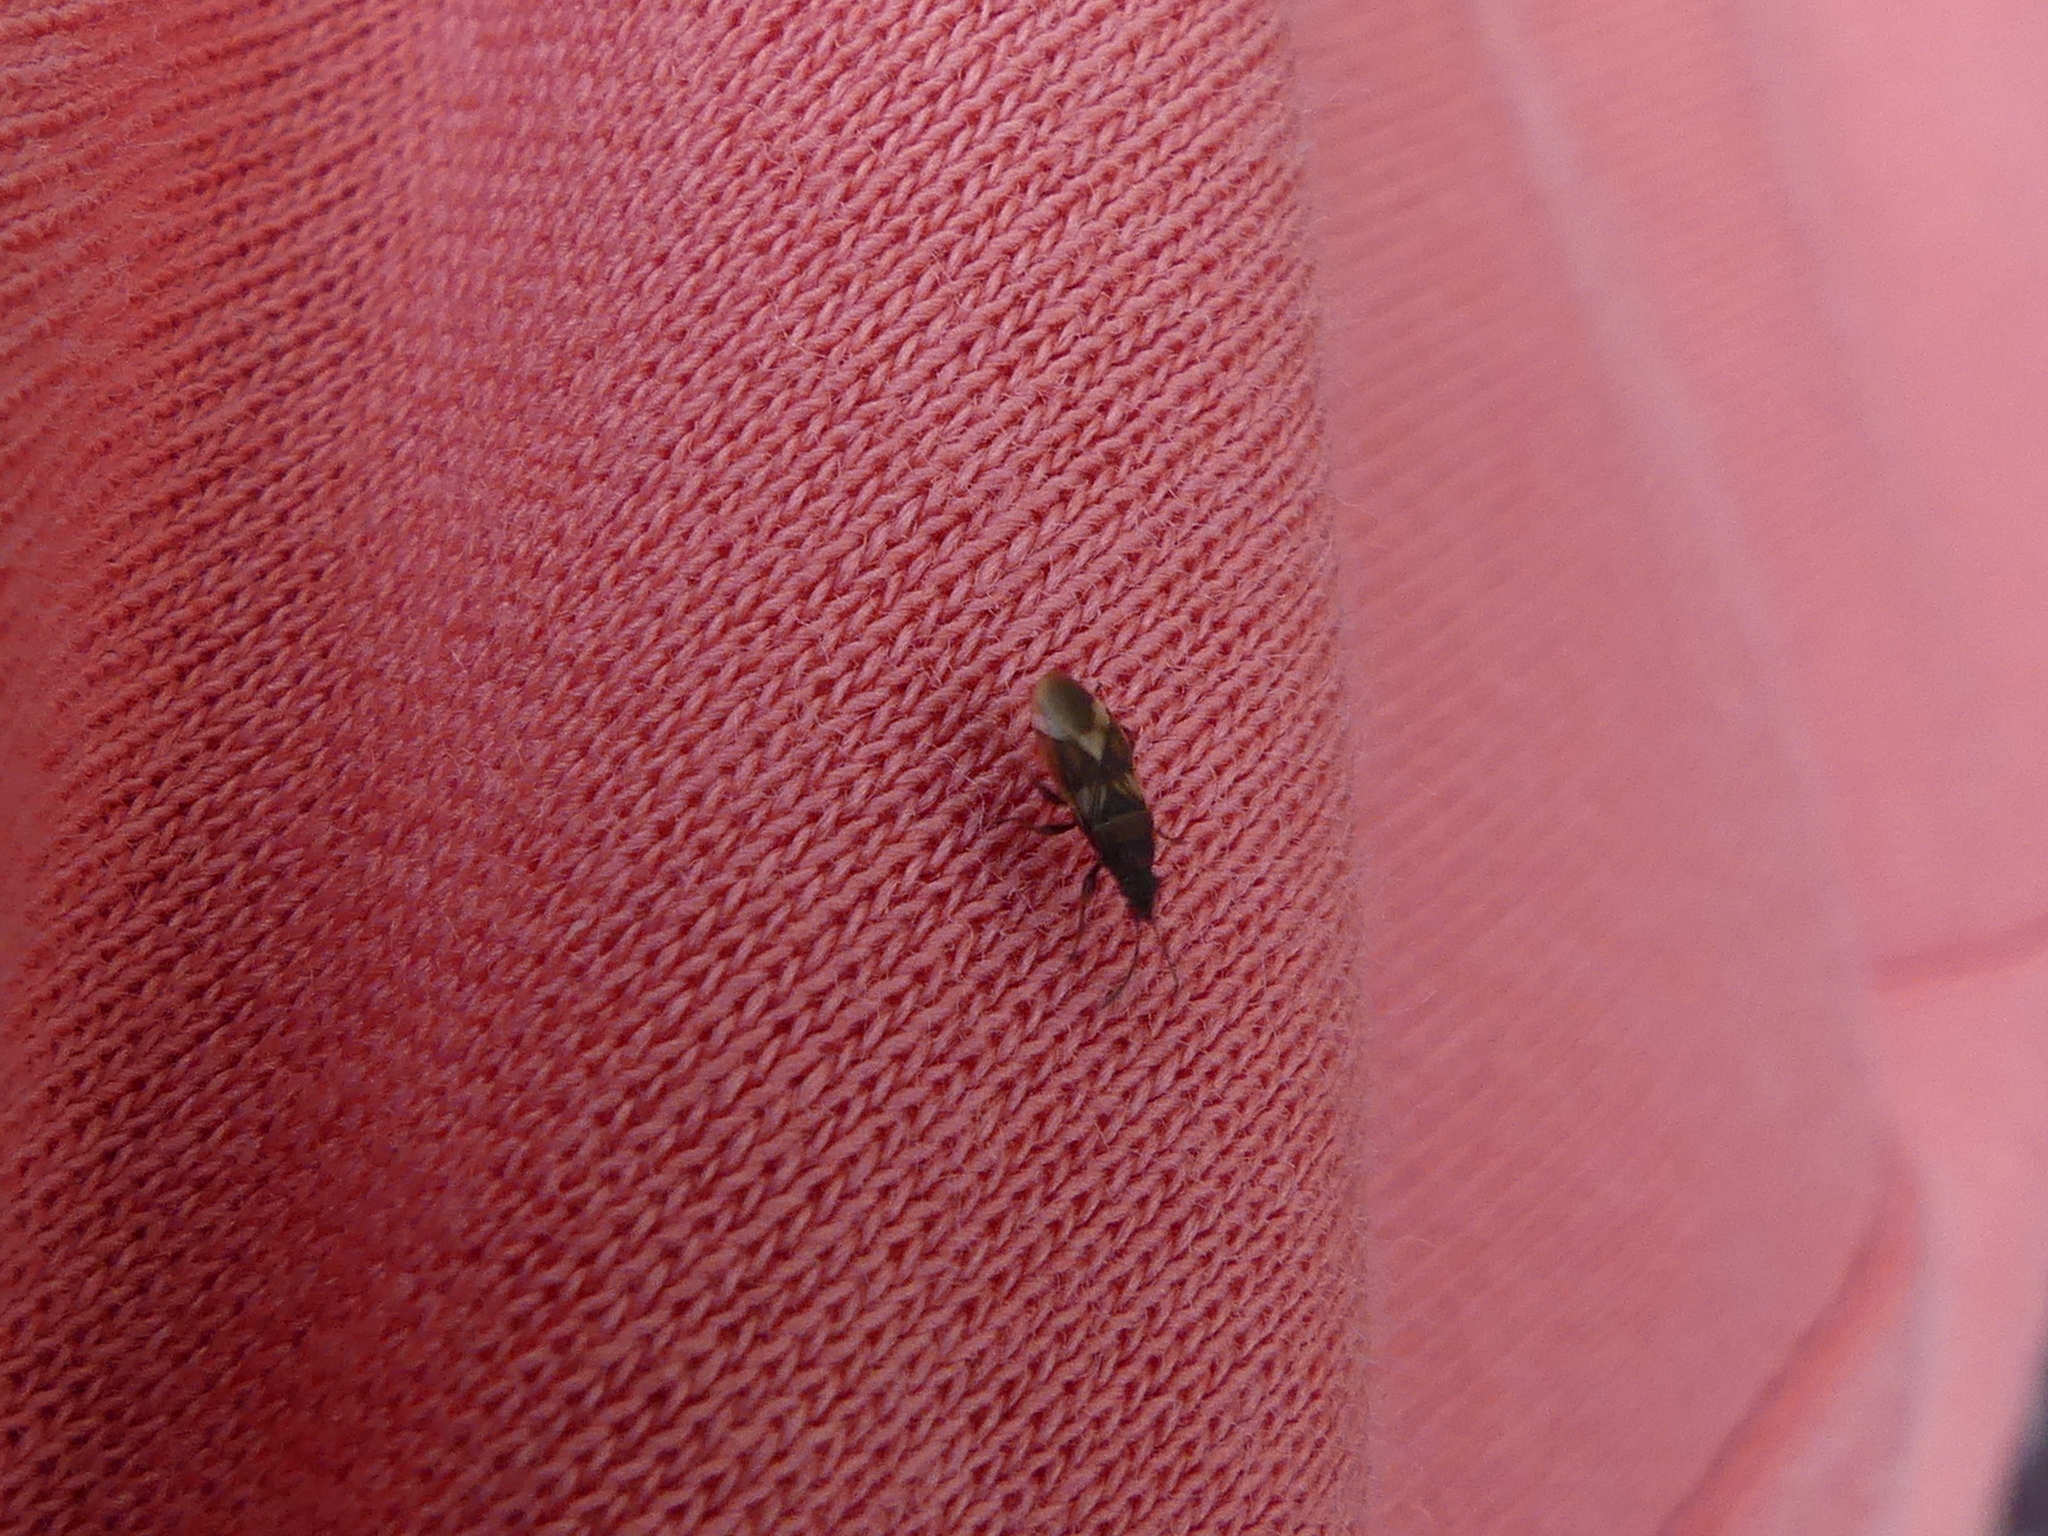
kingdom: Animalia
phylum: Arthropoda
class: Insecta
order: Hemiptera
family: Oxycarenidae
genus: Oxycarenus
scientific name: Oxycarenus modestus
